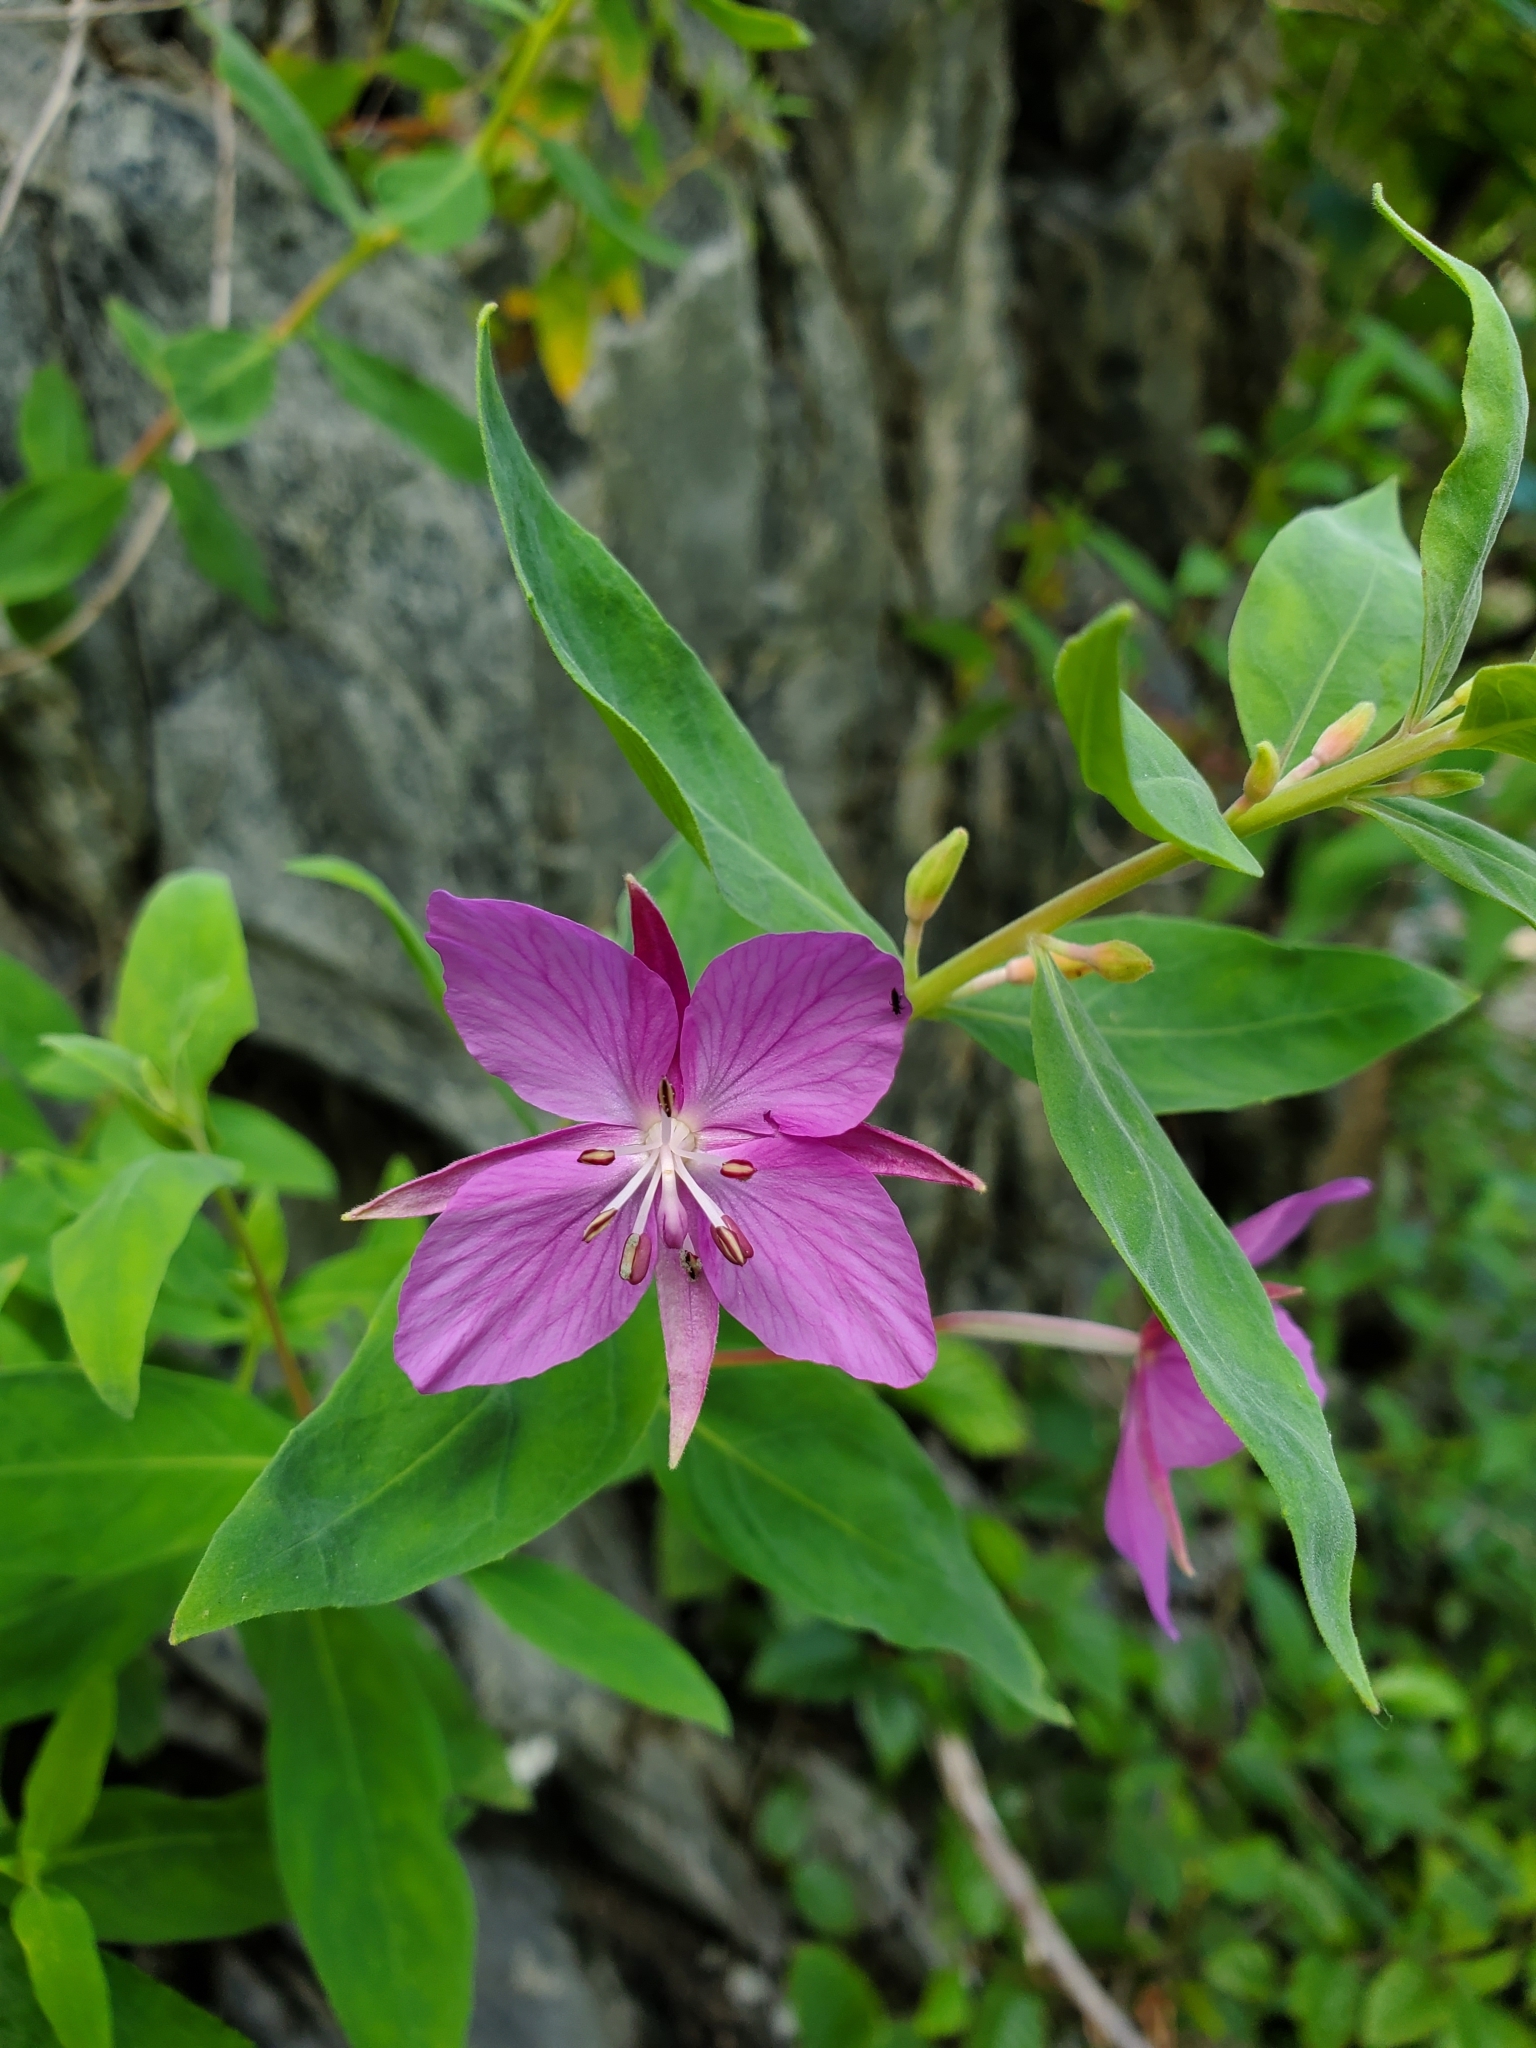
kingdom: Plantae
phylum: Tracheophyta
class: Magnoliopsida
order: Myrtales
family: Onagraceae
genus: Chamaenerion
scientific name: Chamaenerion latifolium
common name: Dwarf fireweed
